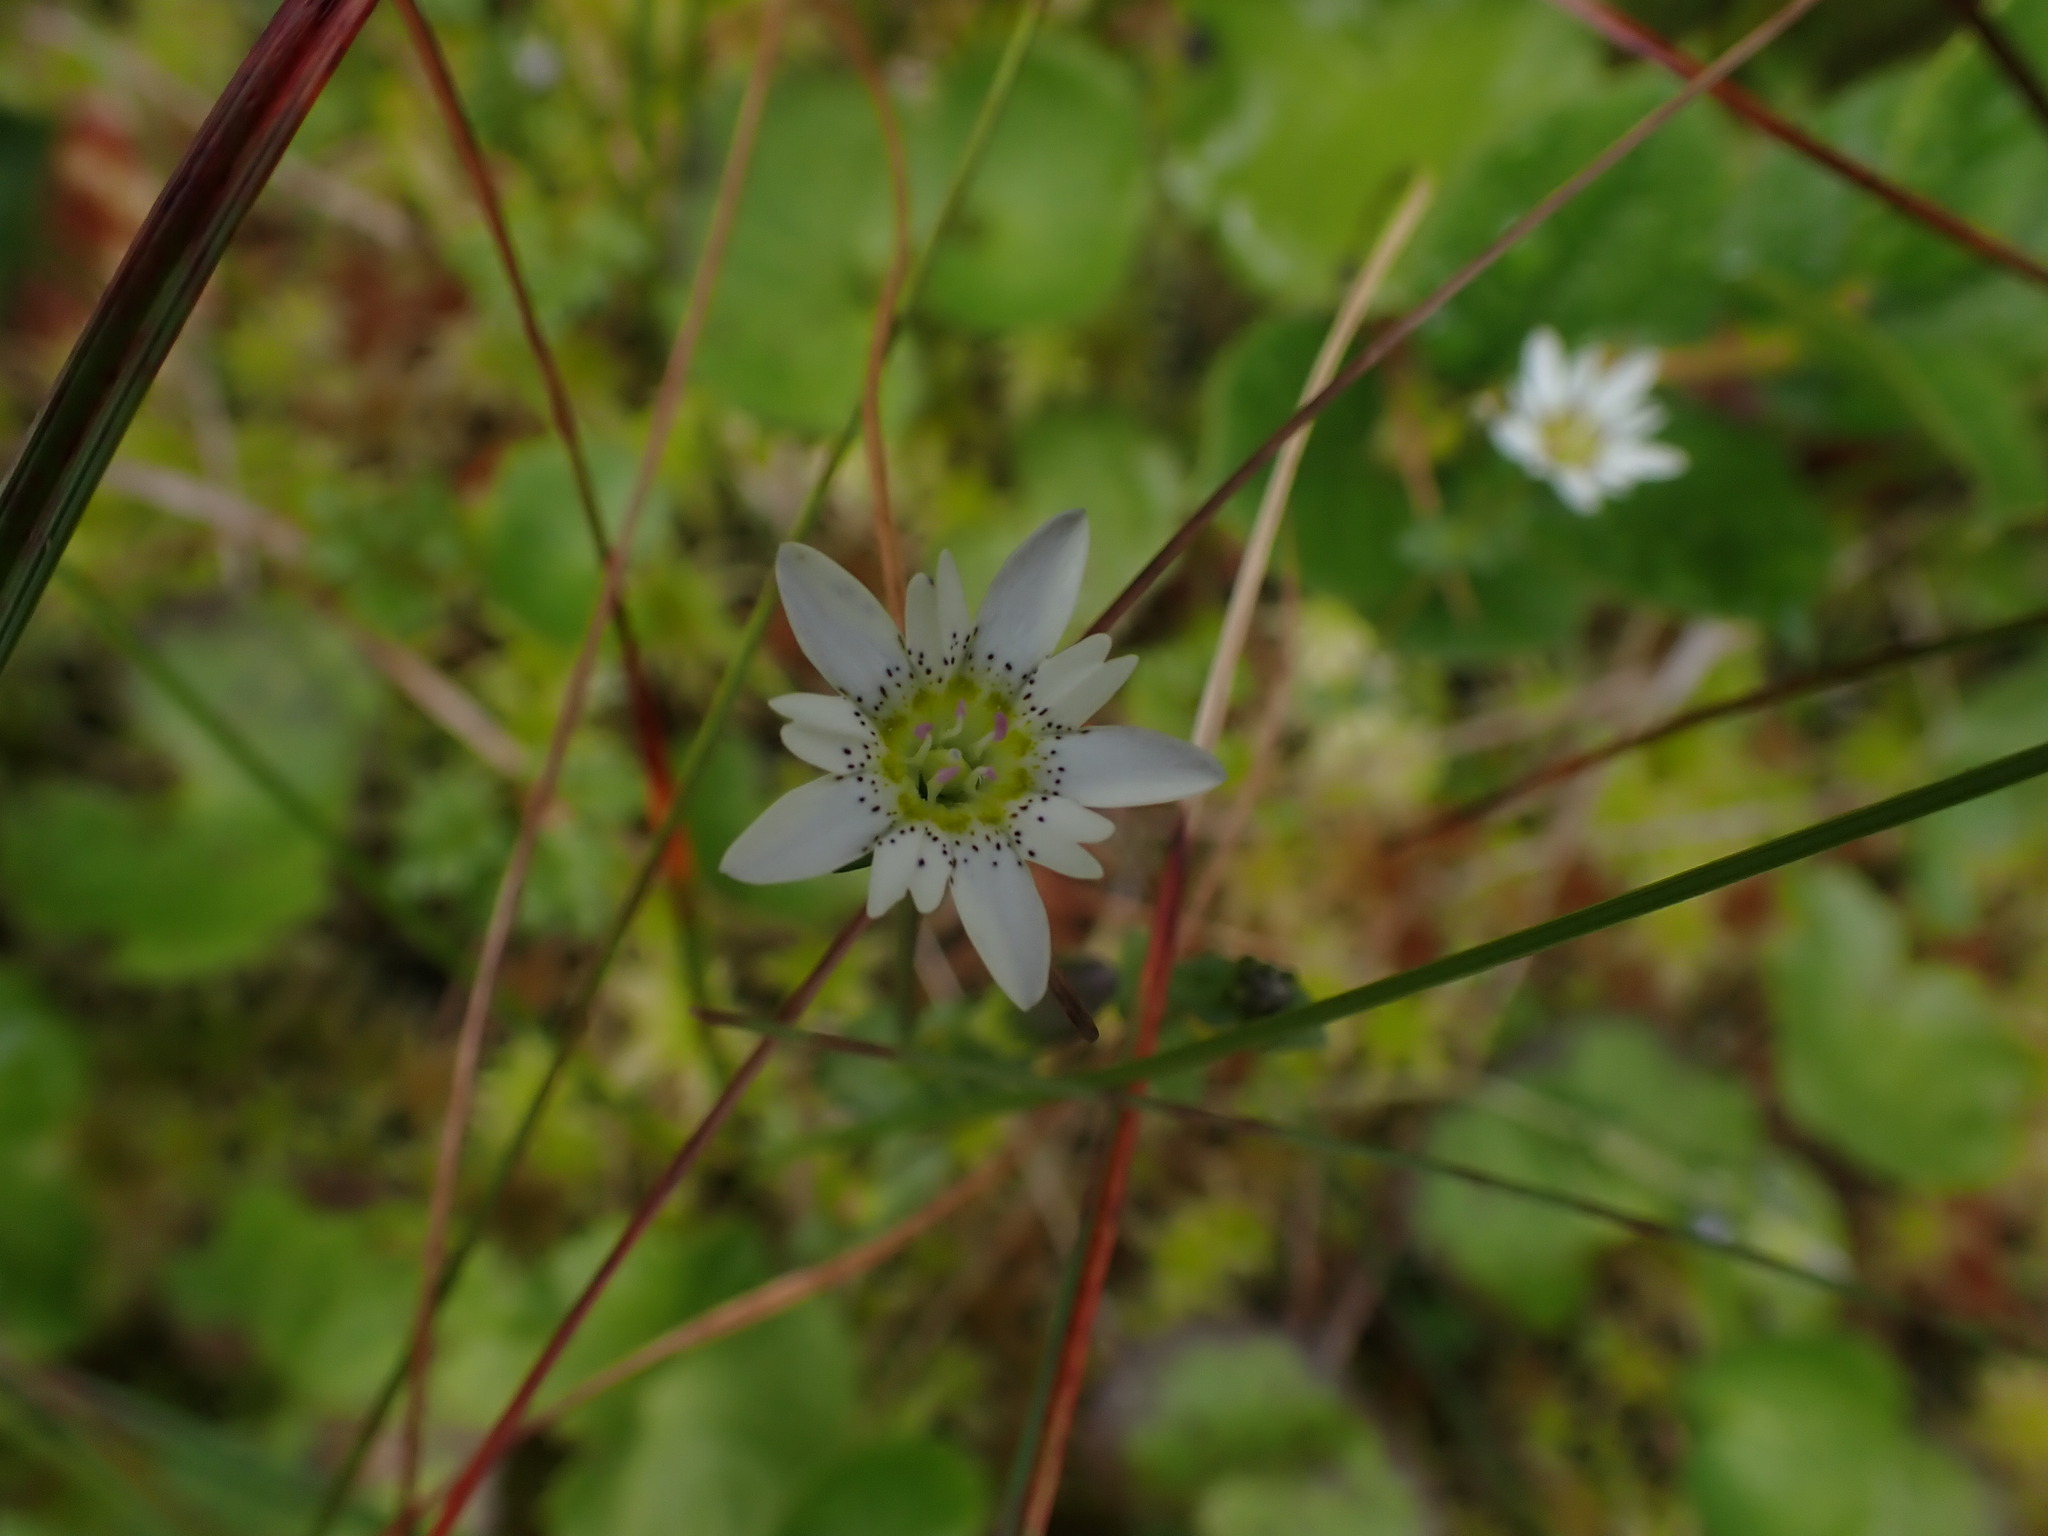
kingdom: Plantae
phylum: Tracheophyta
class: Magnoliopsida
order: Gentianales
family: Gentianaceae
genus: Gentiana
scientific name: Gentiana douglasiana
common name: Swamp gentian
